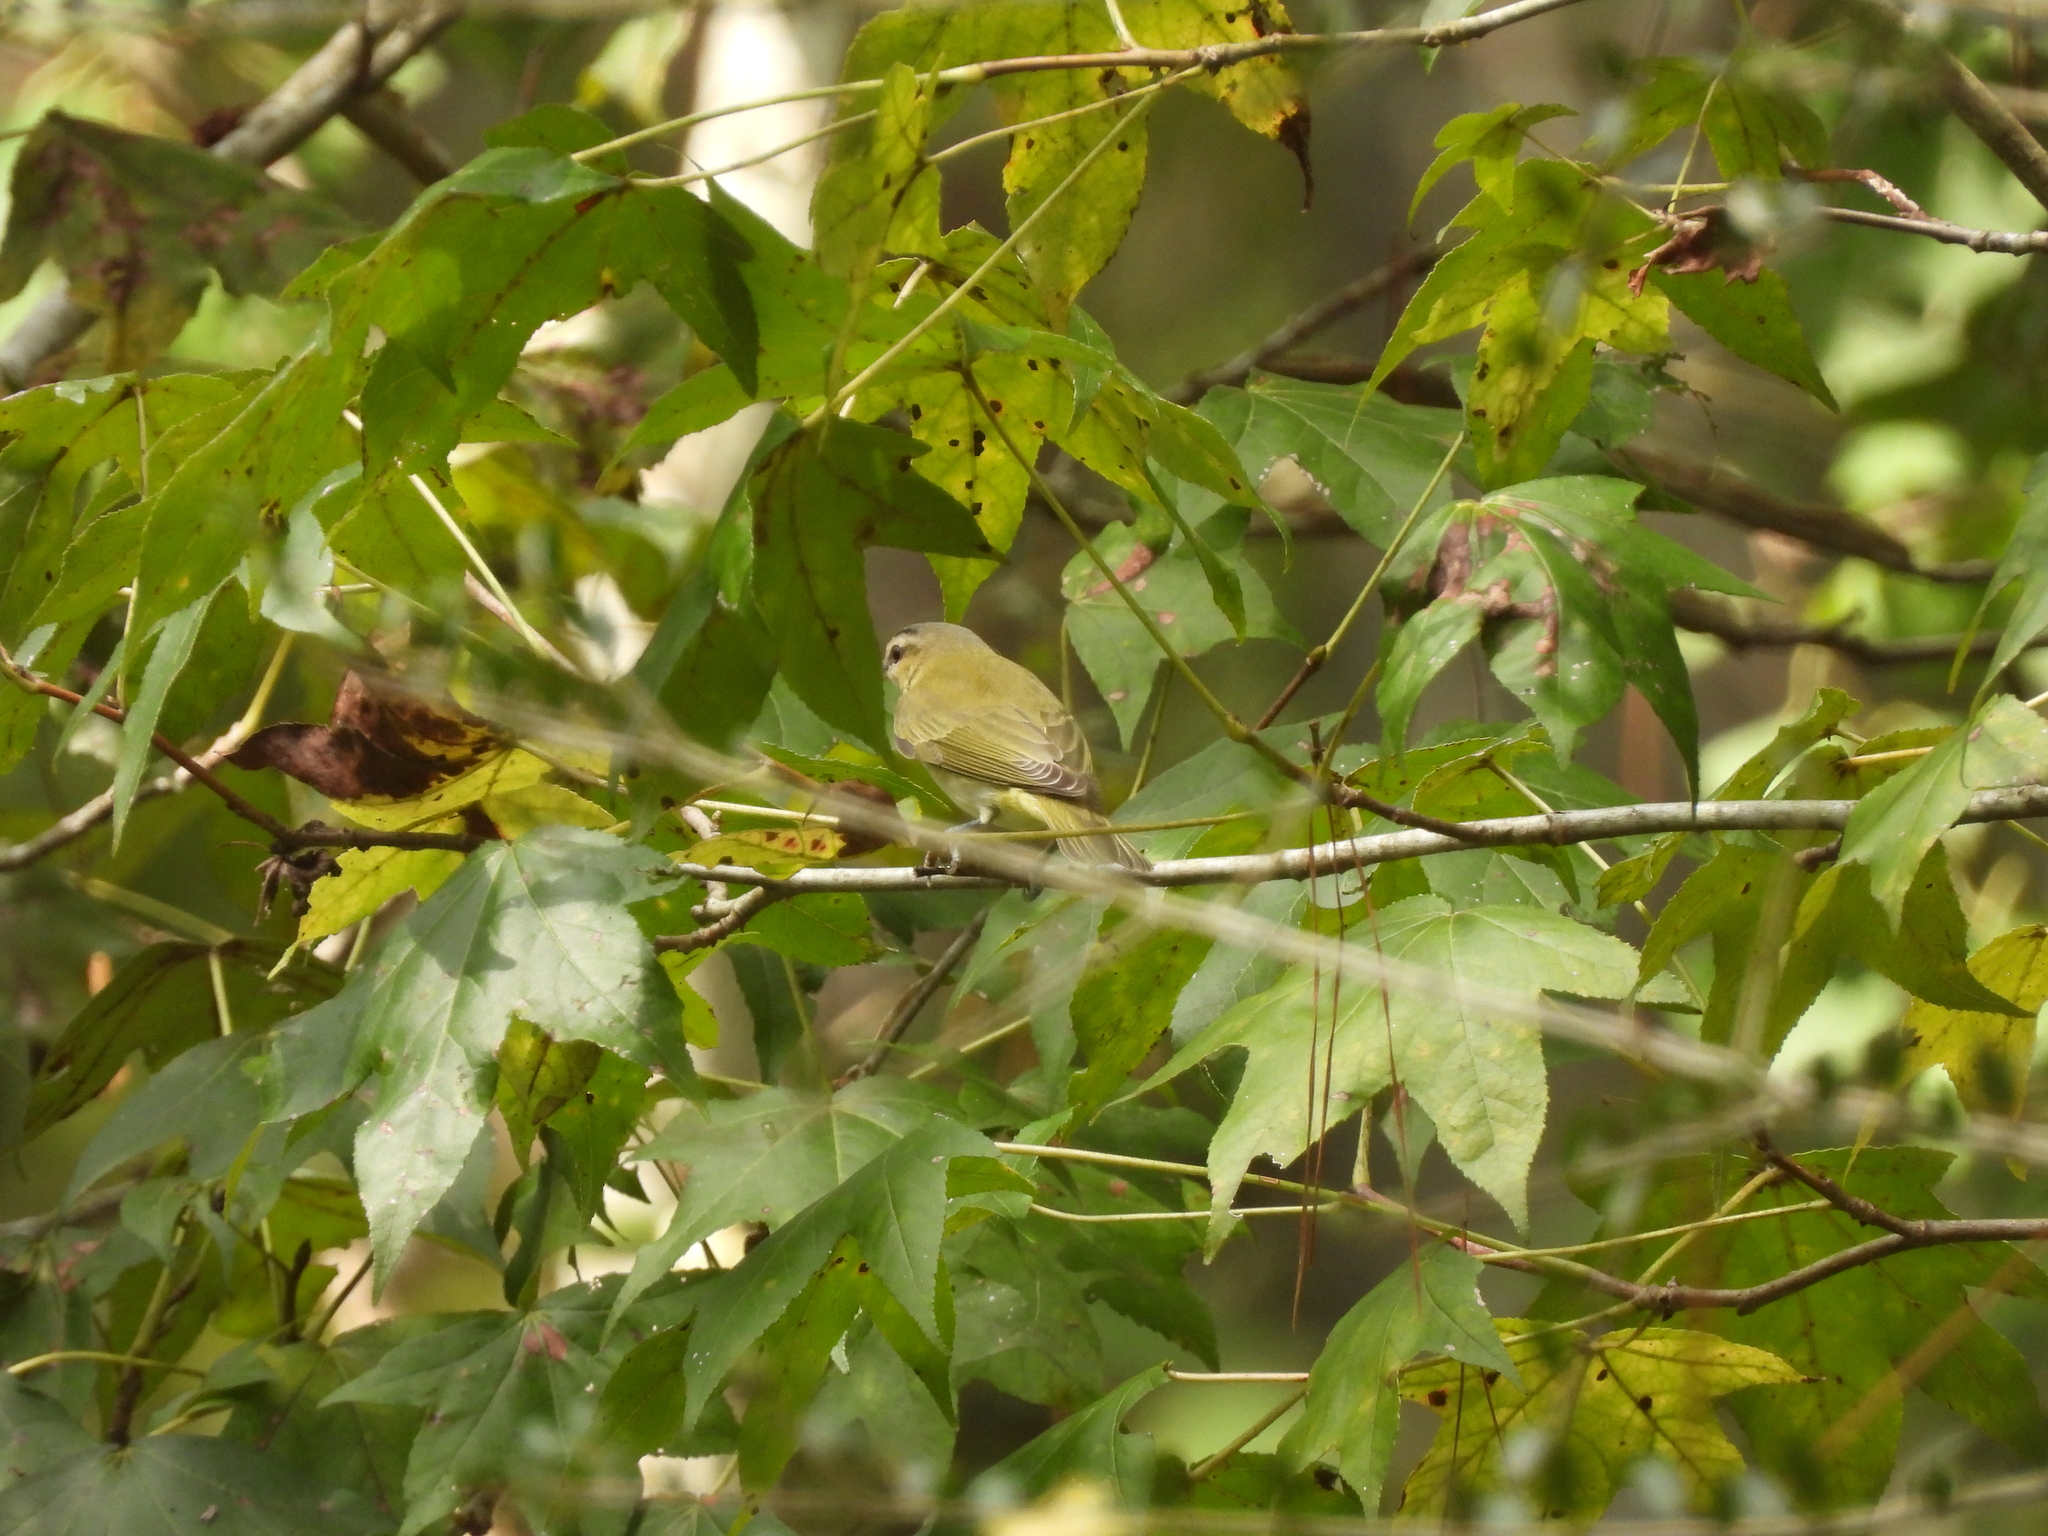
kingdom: Animalia
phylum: Chordata
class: Aves
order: Passeriformes
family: Vireonidae
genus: Vireo
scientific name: Vireo olivaceus
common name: Red-eyed vireo
